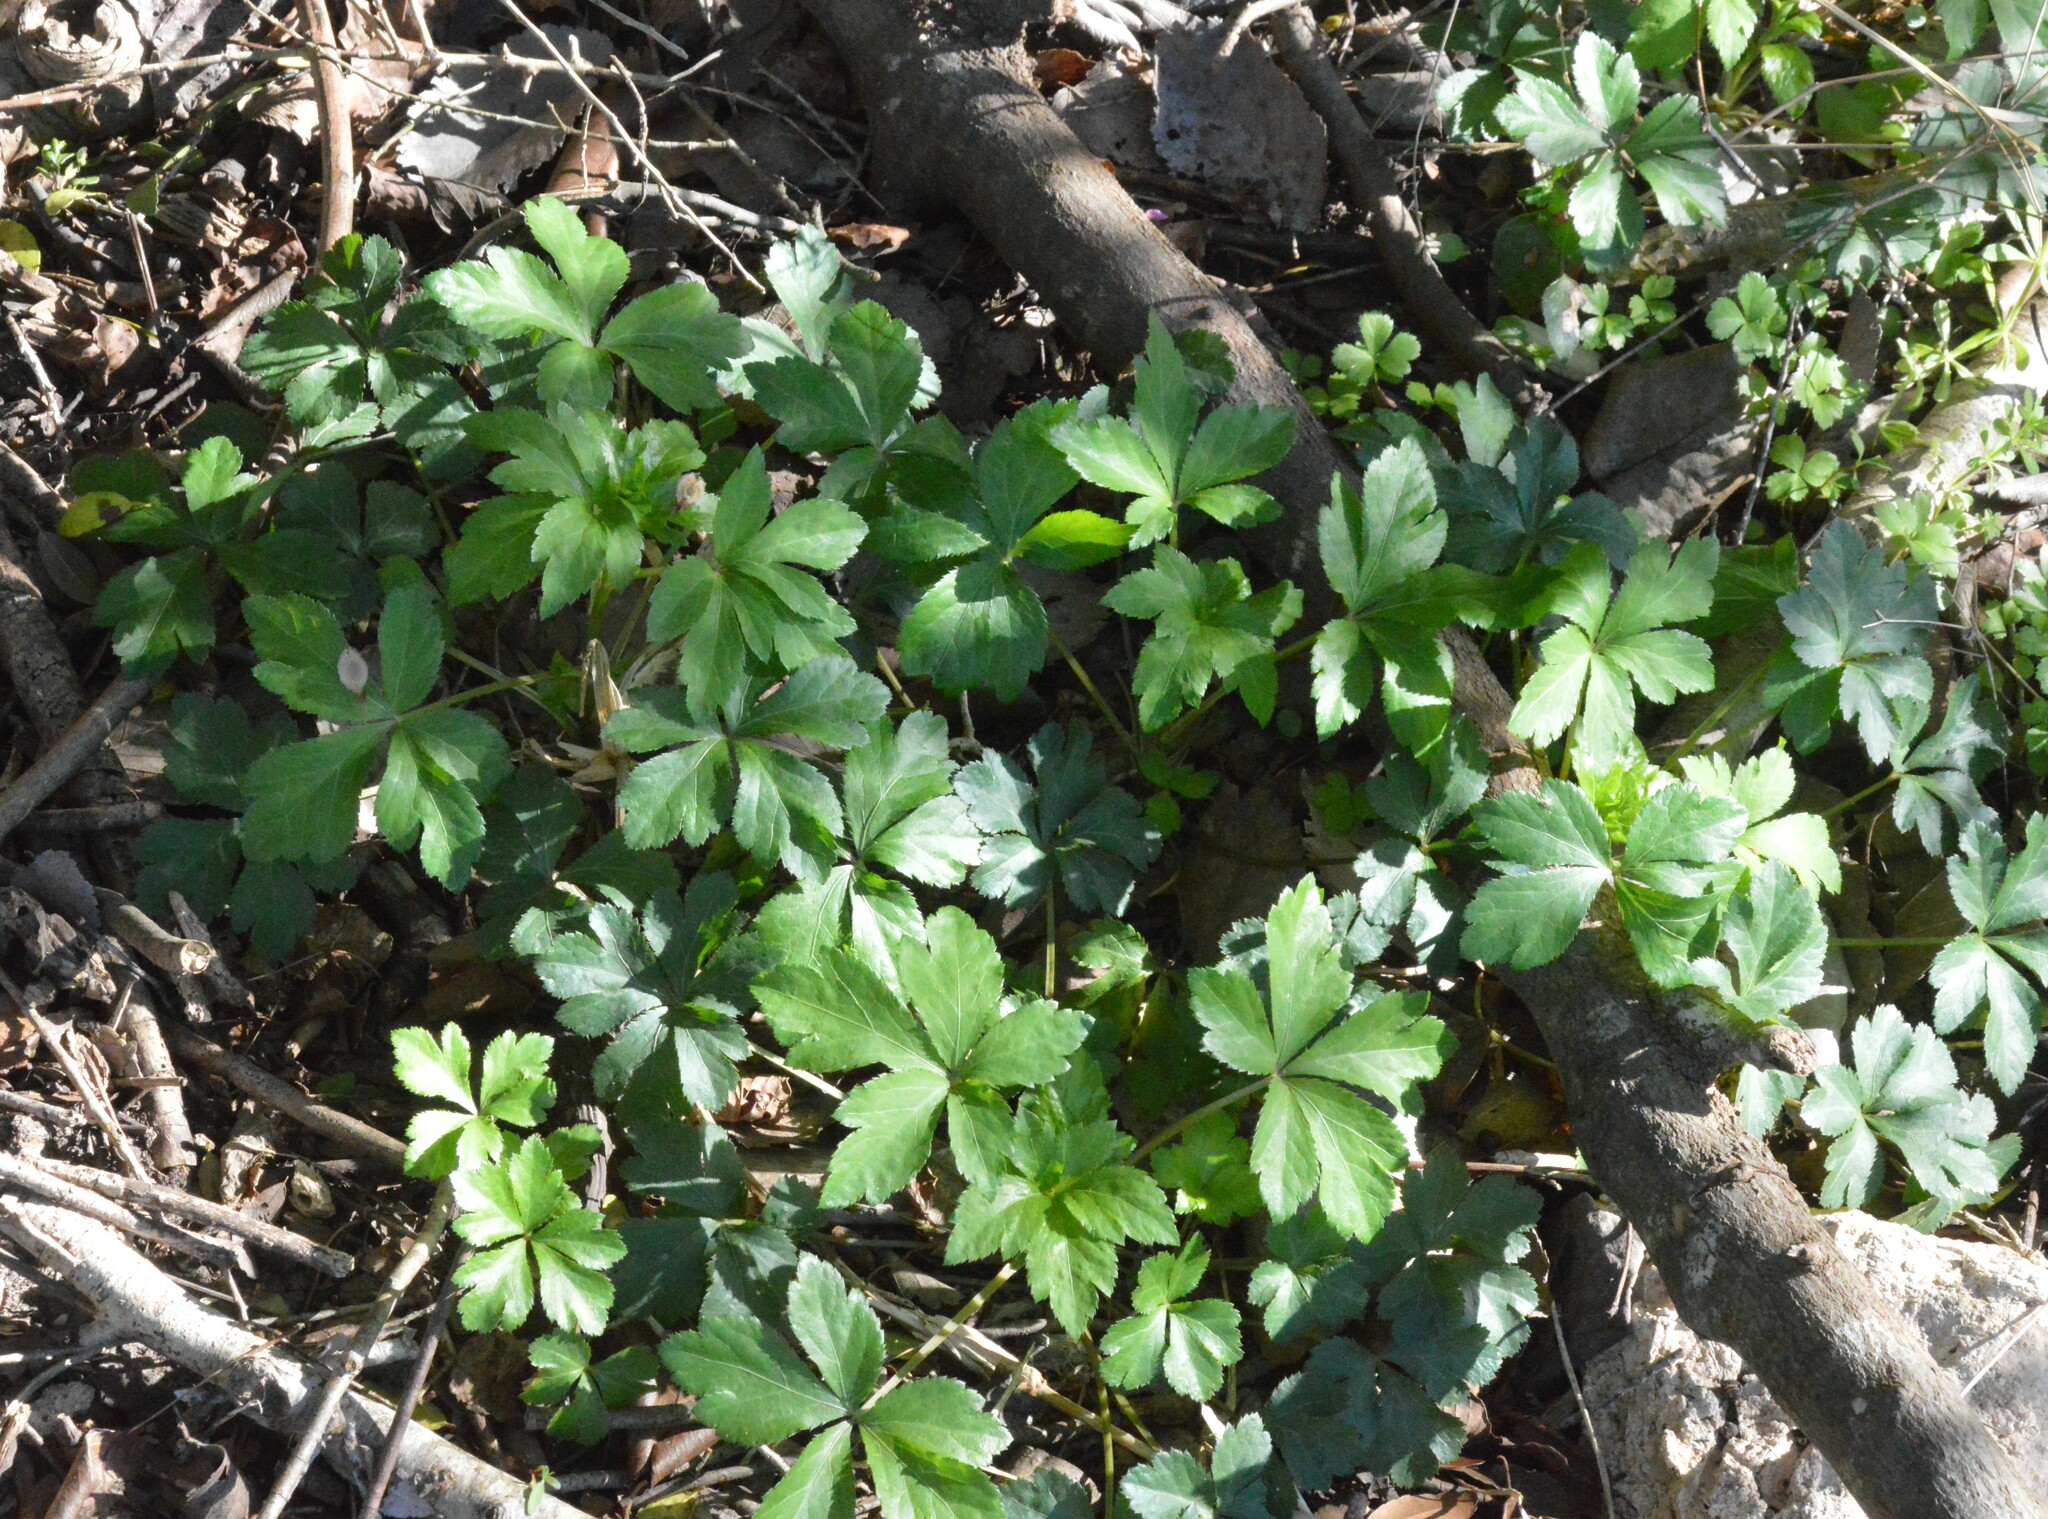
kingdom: Plantae
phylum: Tracheophyta
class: Magnoliopsida
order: Apiales
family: Apiaceae
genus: Sanicula
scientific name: Sanicula canadensis
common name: Canada sanicle
